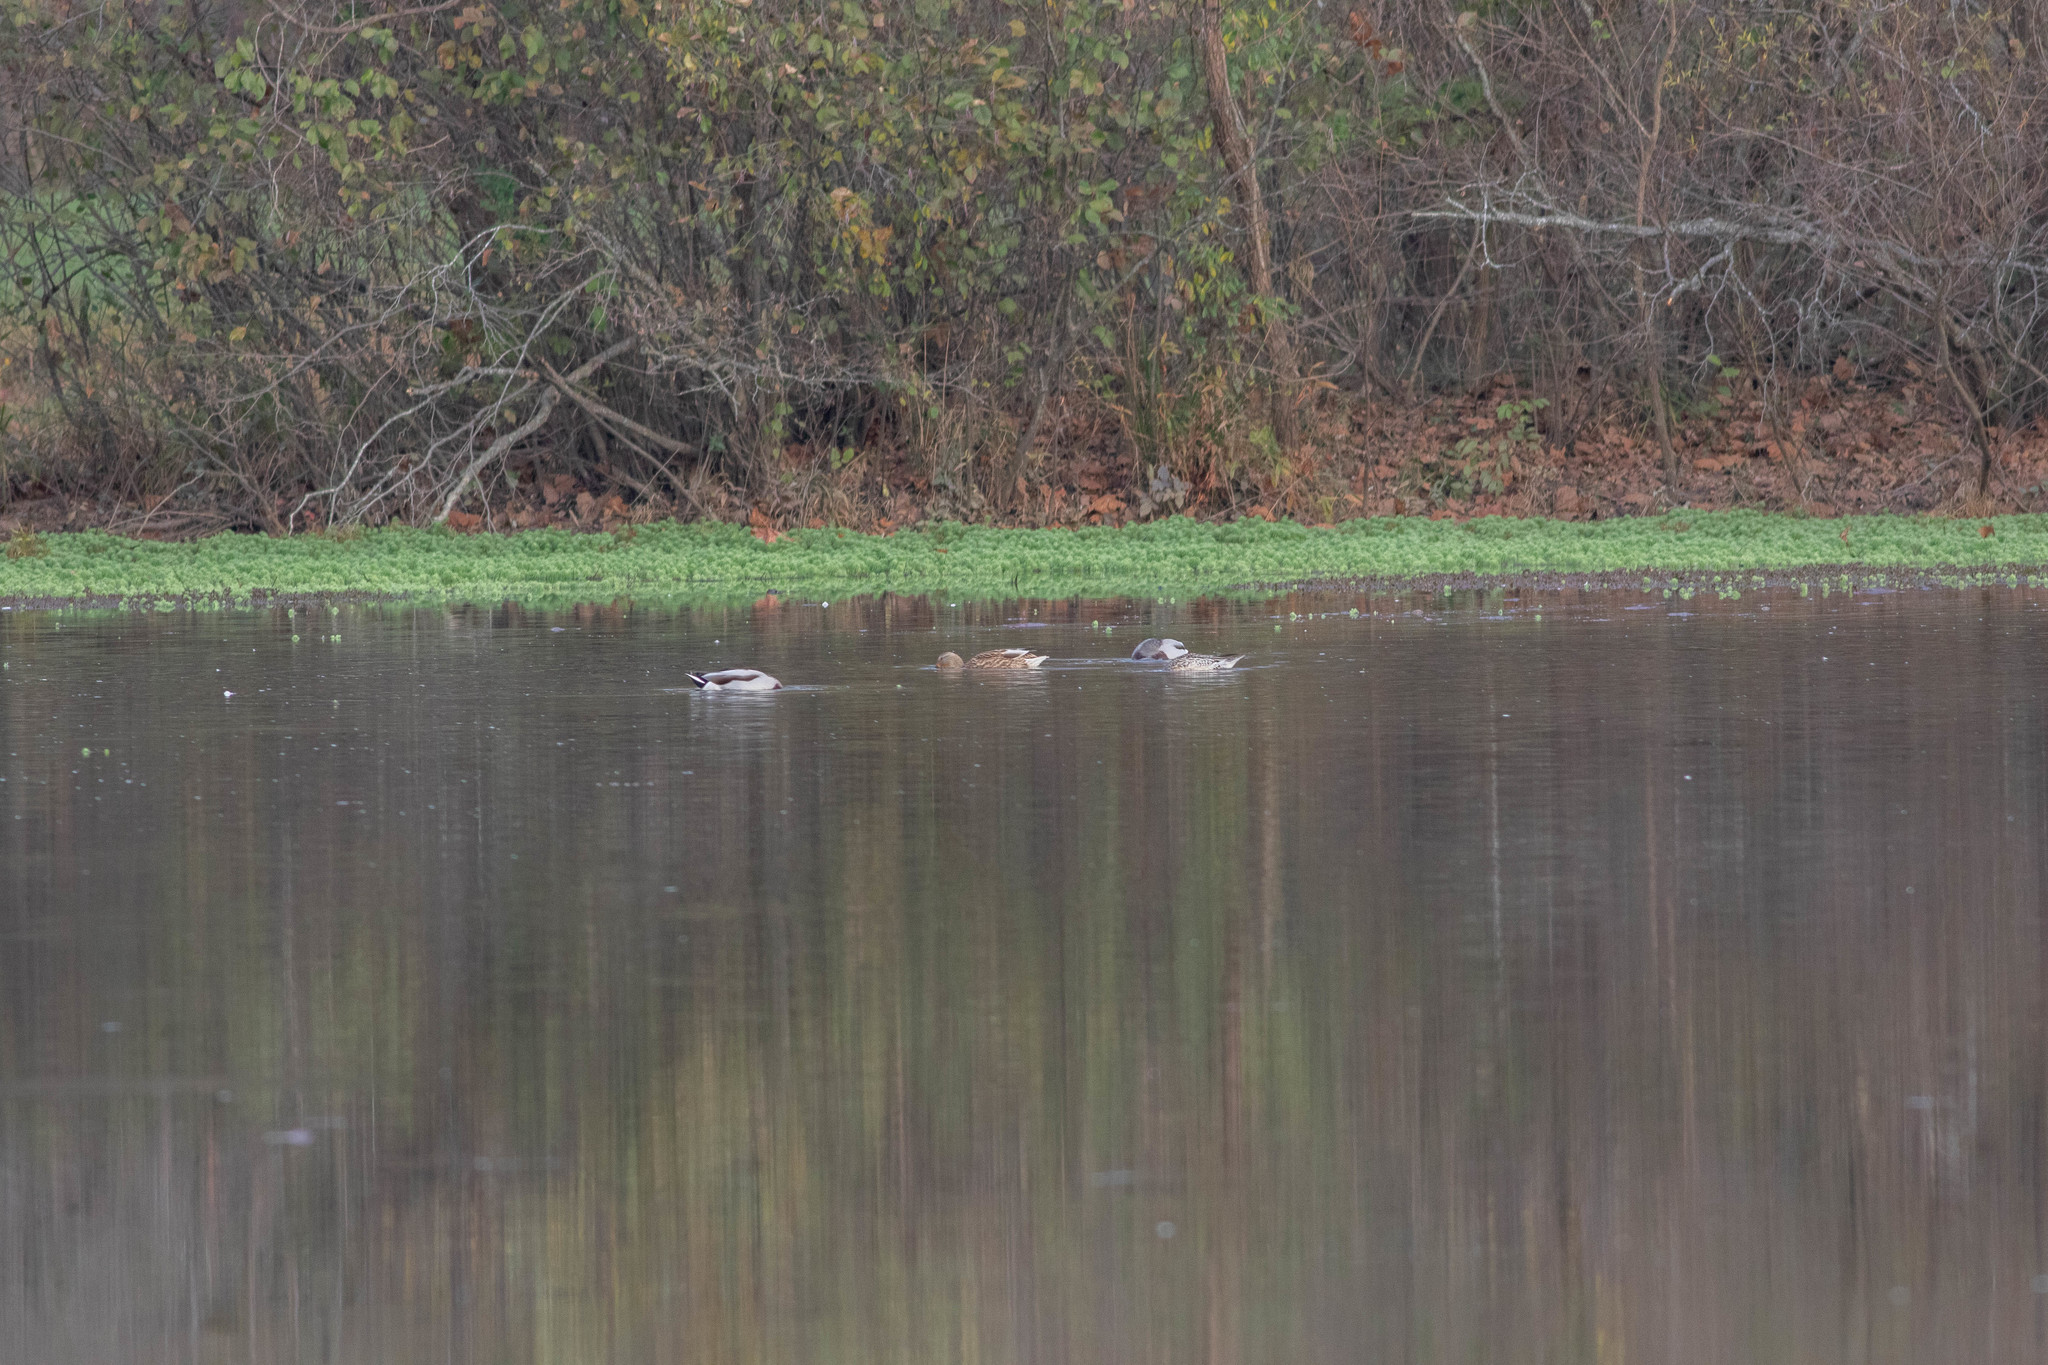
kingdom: Animalia
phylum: Chordata
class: Aves
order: Anseriformes
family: Anatidae
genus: Anas
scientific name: Anas platyrhynchos
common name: Mallard
